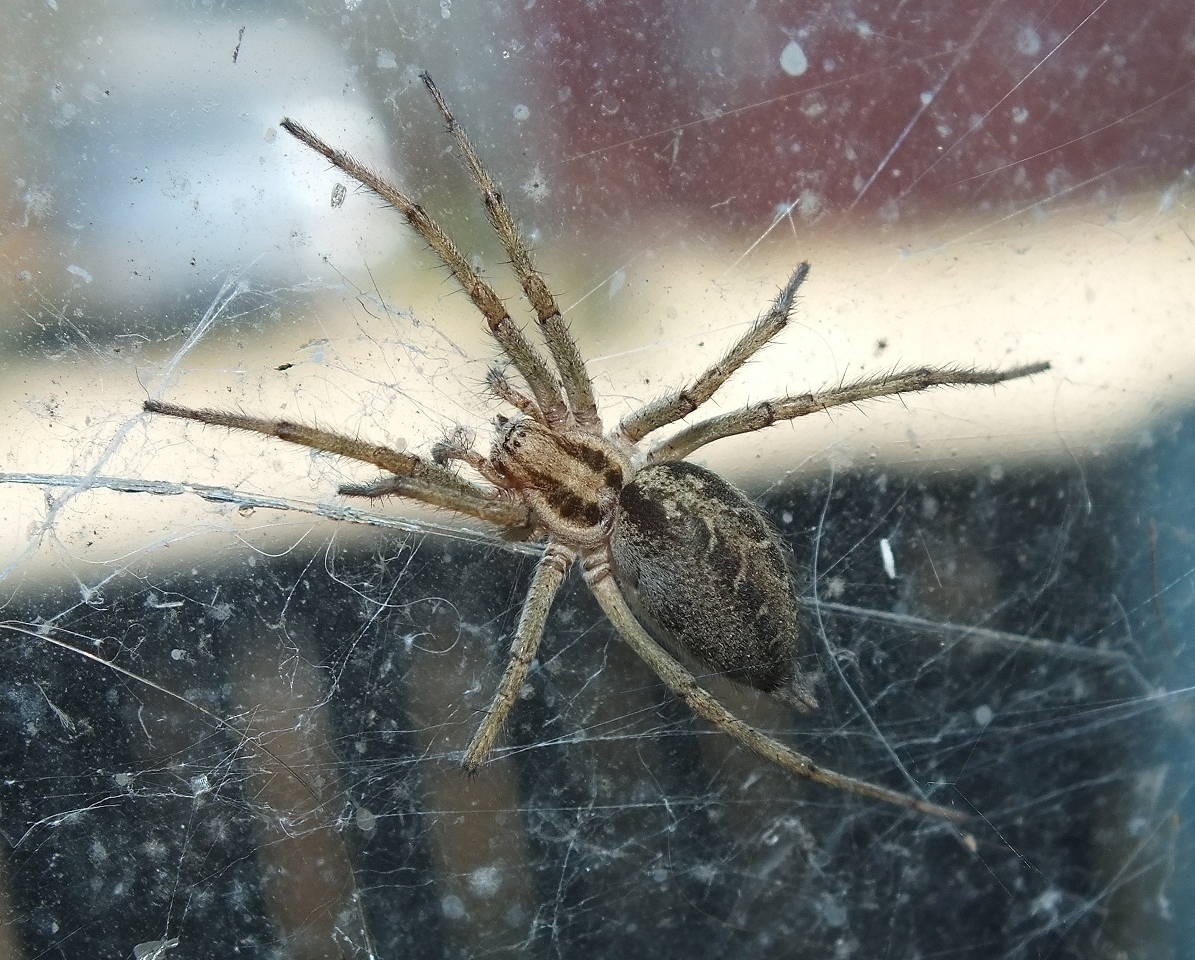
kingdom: Animalia
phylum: Arthropoda
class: Arachnida
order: Araneae
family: Agelenidae
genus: Agelena
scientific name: Agelena labyrinthica
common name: Labyrinth spider
